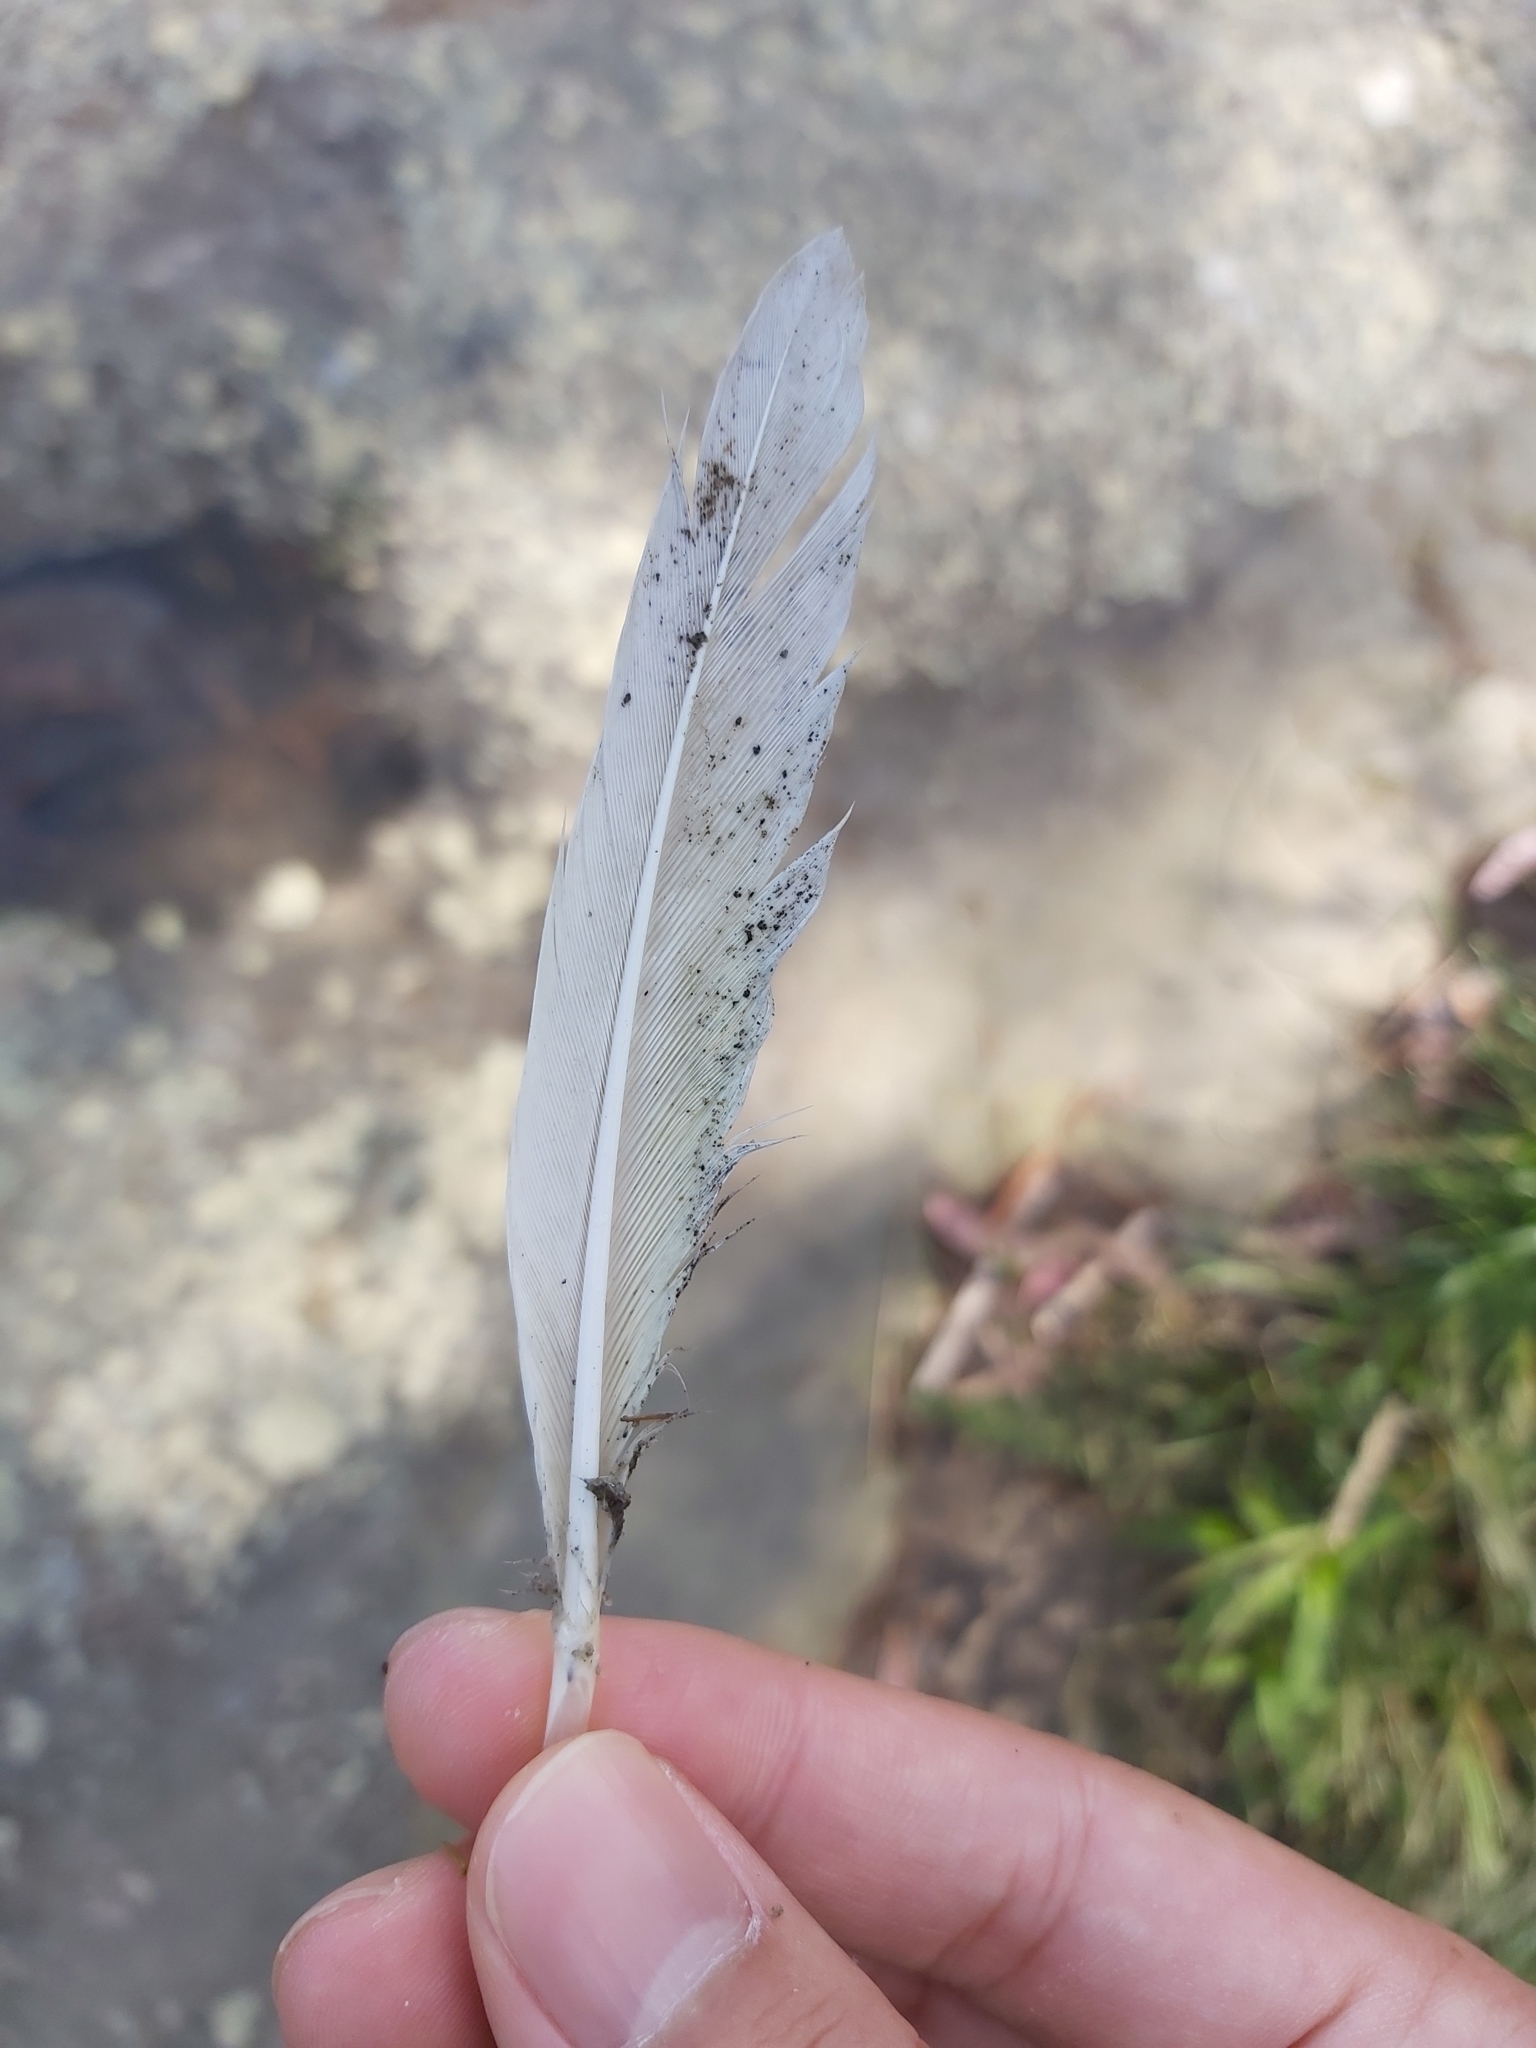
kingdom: Animalia
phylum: Chordata
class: Aves
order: Psittaciformes
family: Psittacidae
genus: Cacatua
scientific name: Cacatua galerita
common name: Sulphur-crested cockatoo
